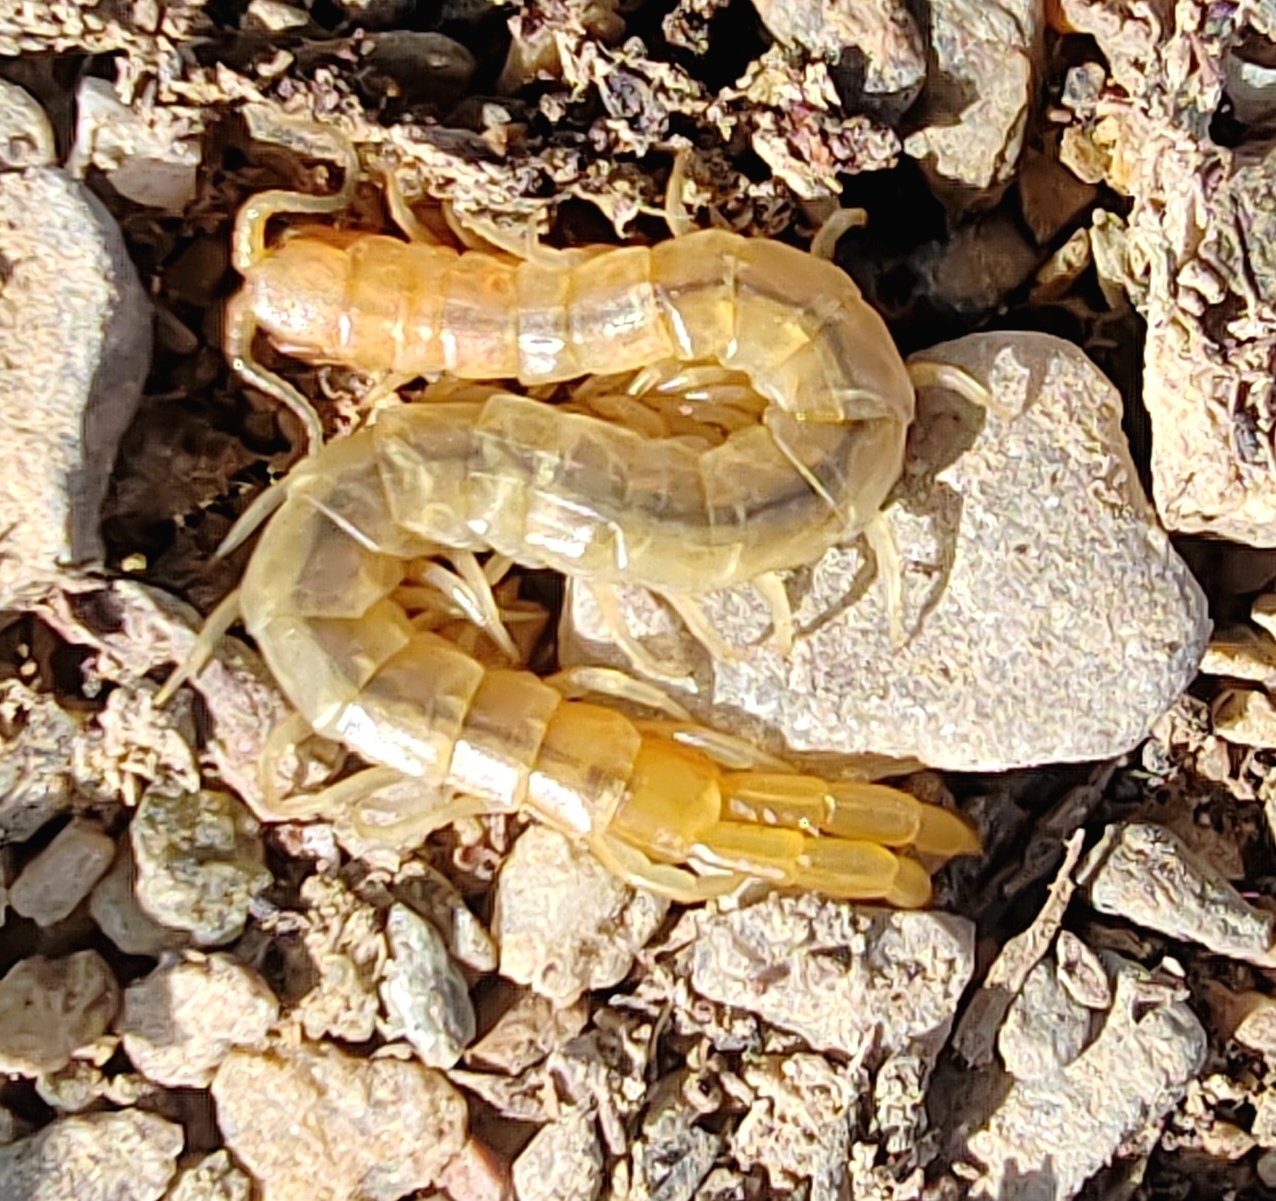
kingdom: Animalia
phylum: Arthropoda
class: Chilopoda
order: Scolopendromorpha
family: Scolopendridae
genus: Scolopendra
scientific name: Scolopendra canidens
